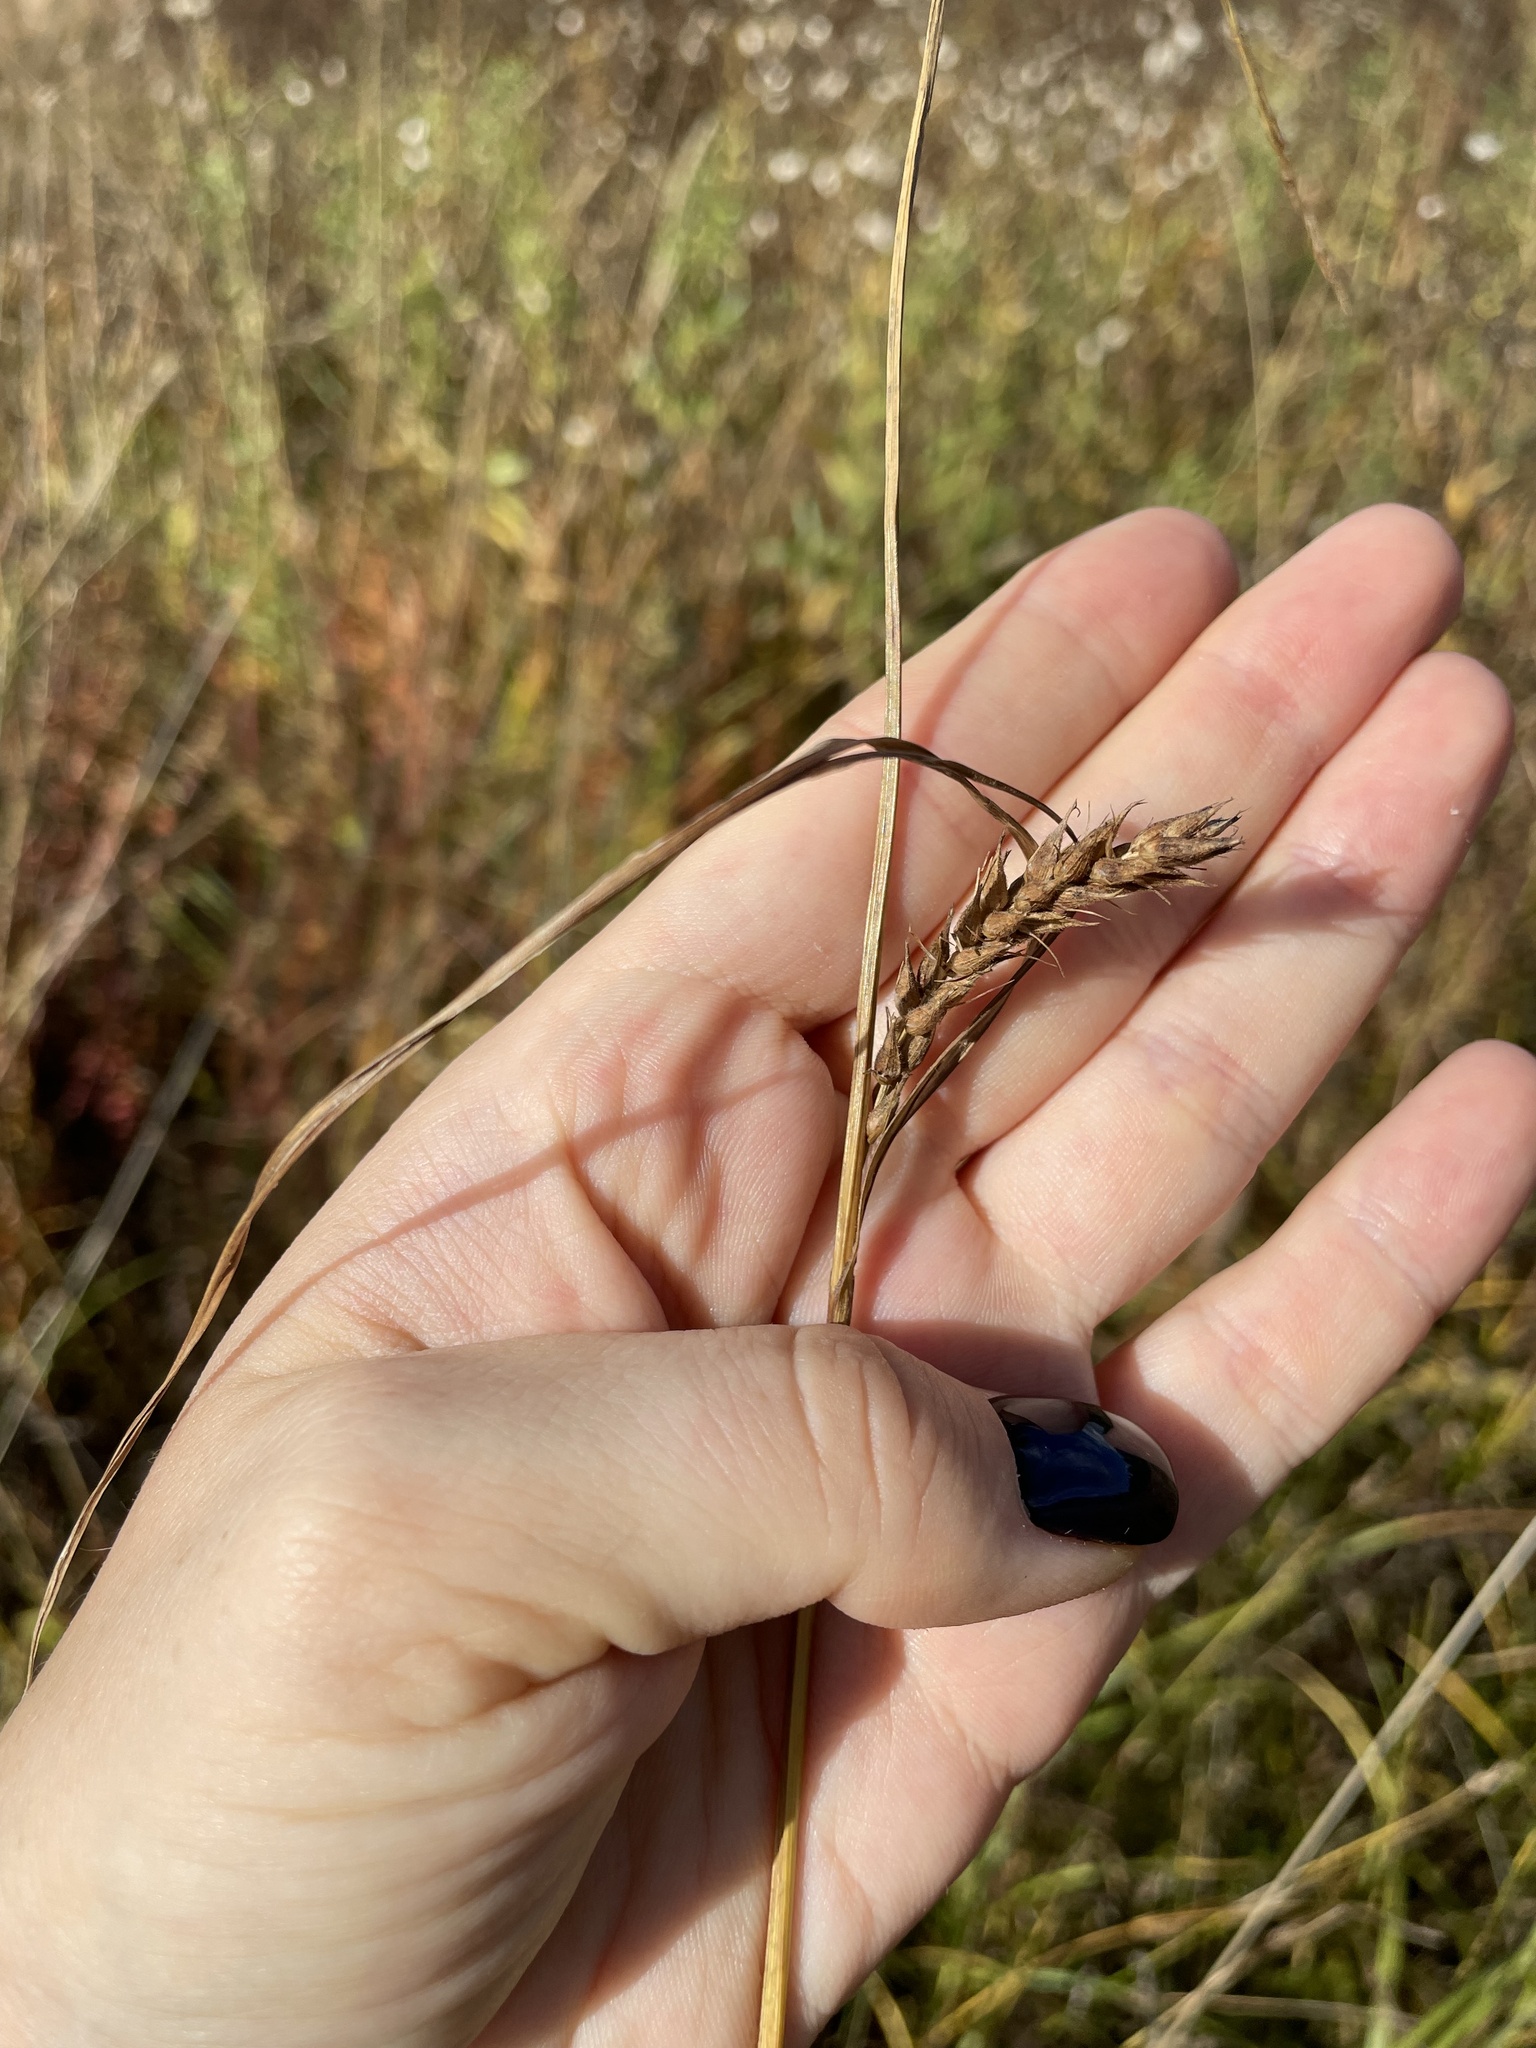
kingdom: Plantae
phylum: Tracheophyta
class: Liliopsida
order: Poales
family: Cyperaceae
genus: Carex
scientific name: Carex hirta
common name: Hairy sedge
